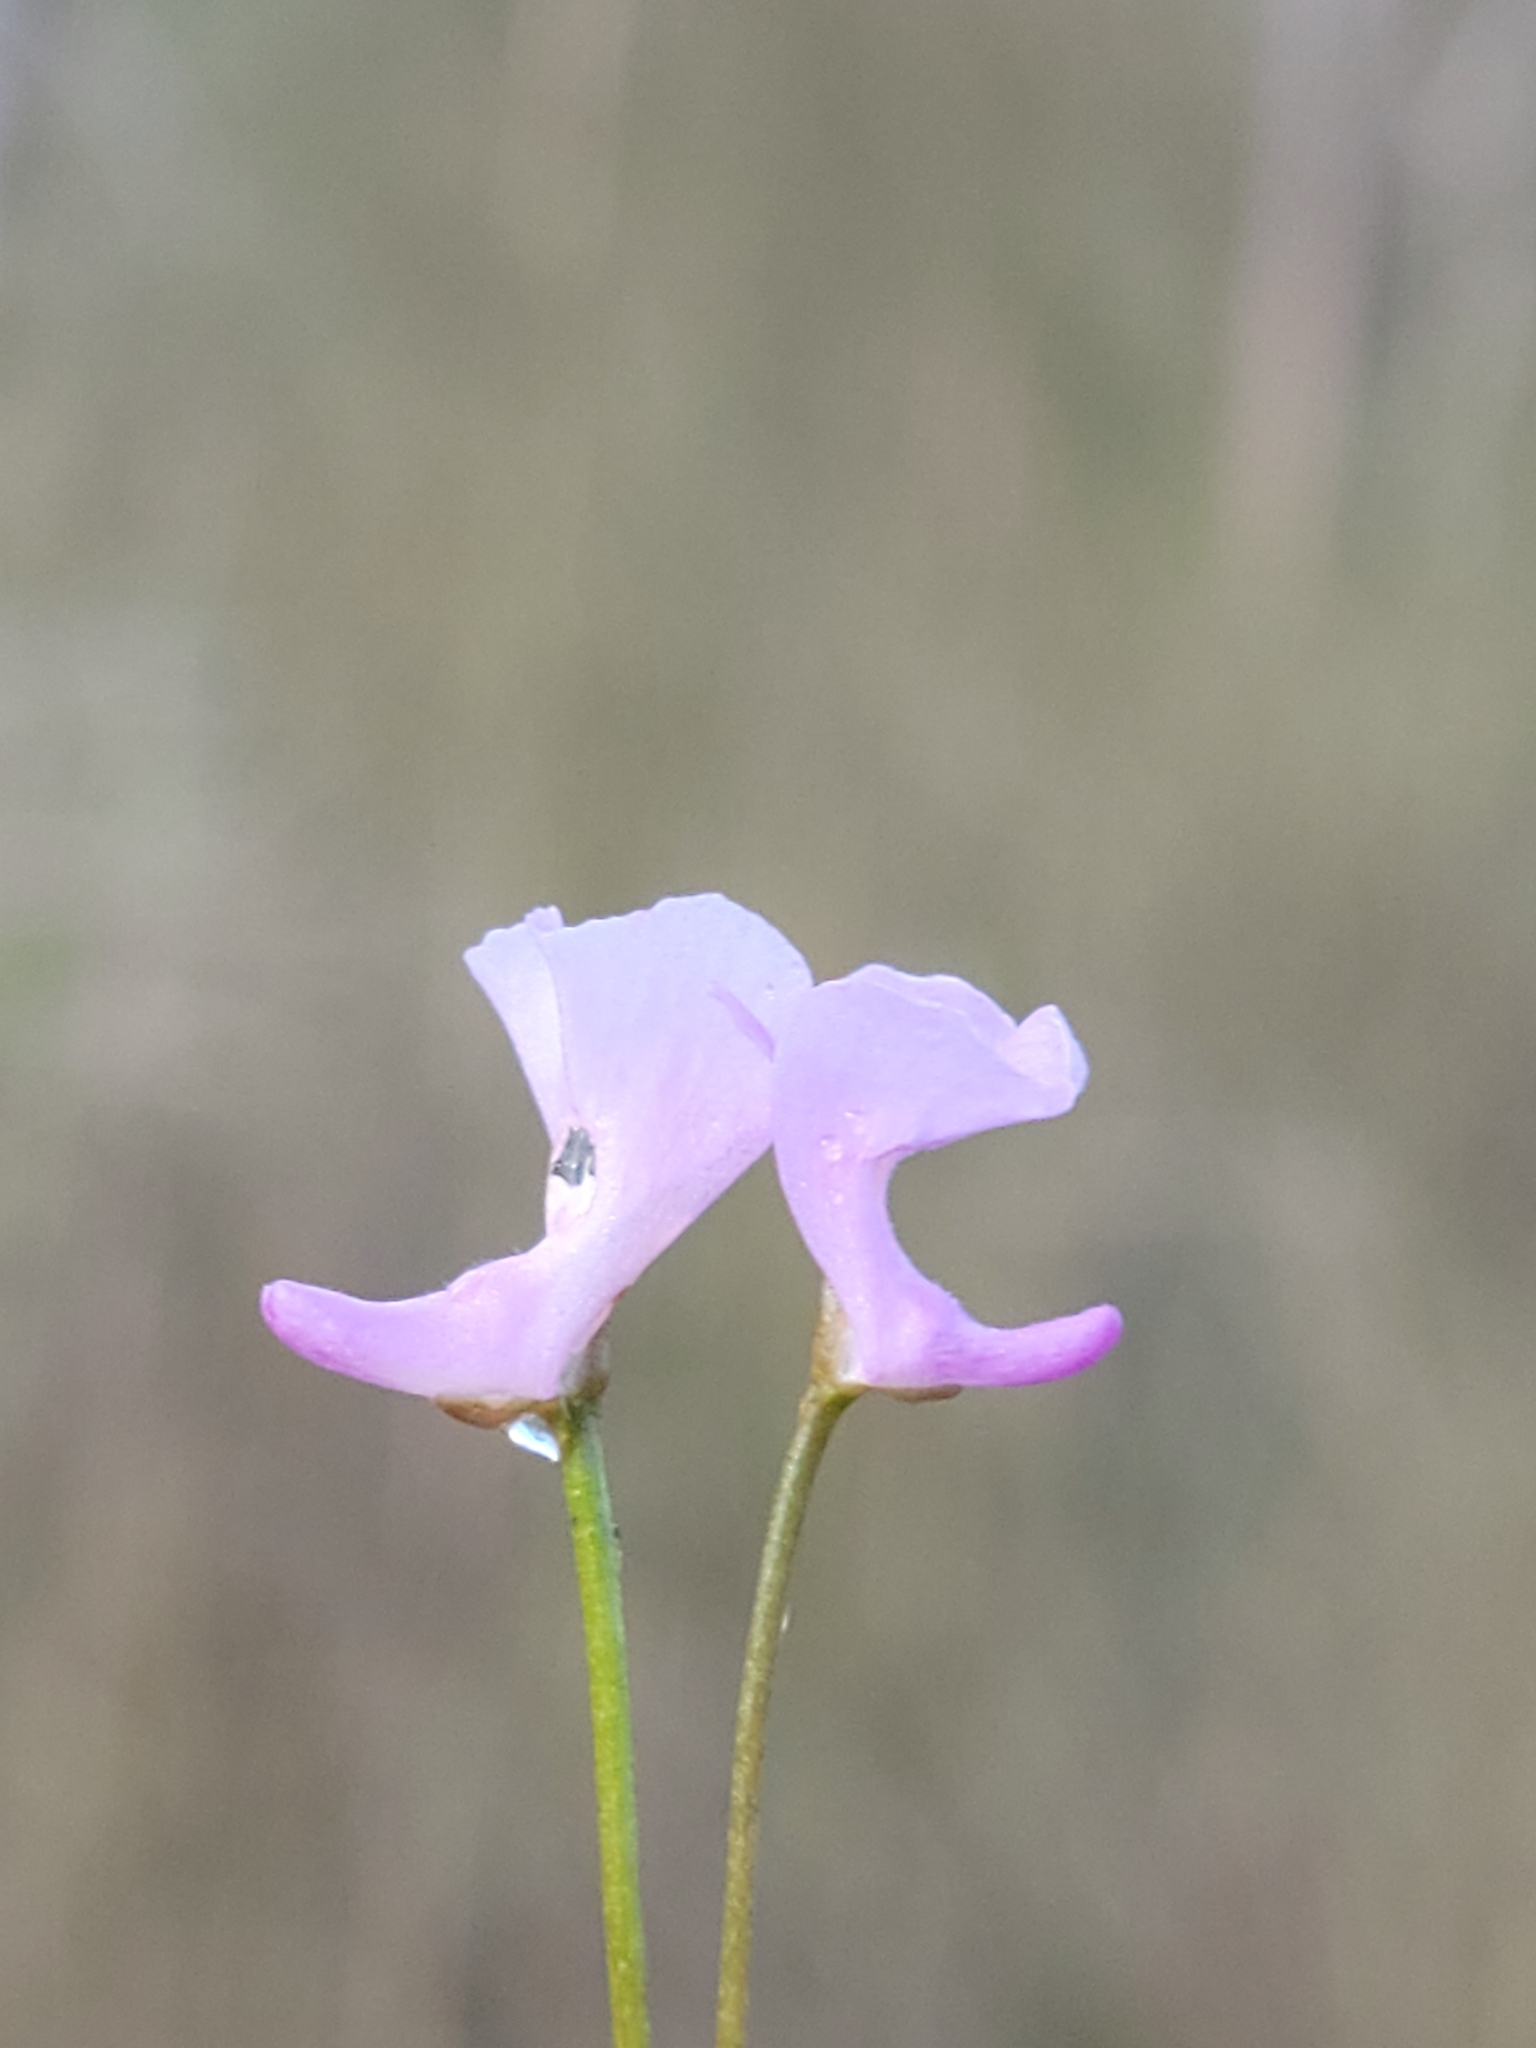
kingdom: Plantae
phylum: Tracheophyta
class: Magnoliopsida
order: Lamiales
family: Lentibulariaceae
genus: Utricularia
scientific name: Utricularia resupinata
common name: Northeastern bladderwort
